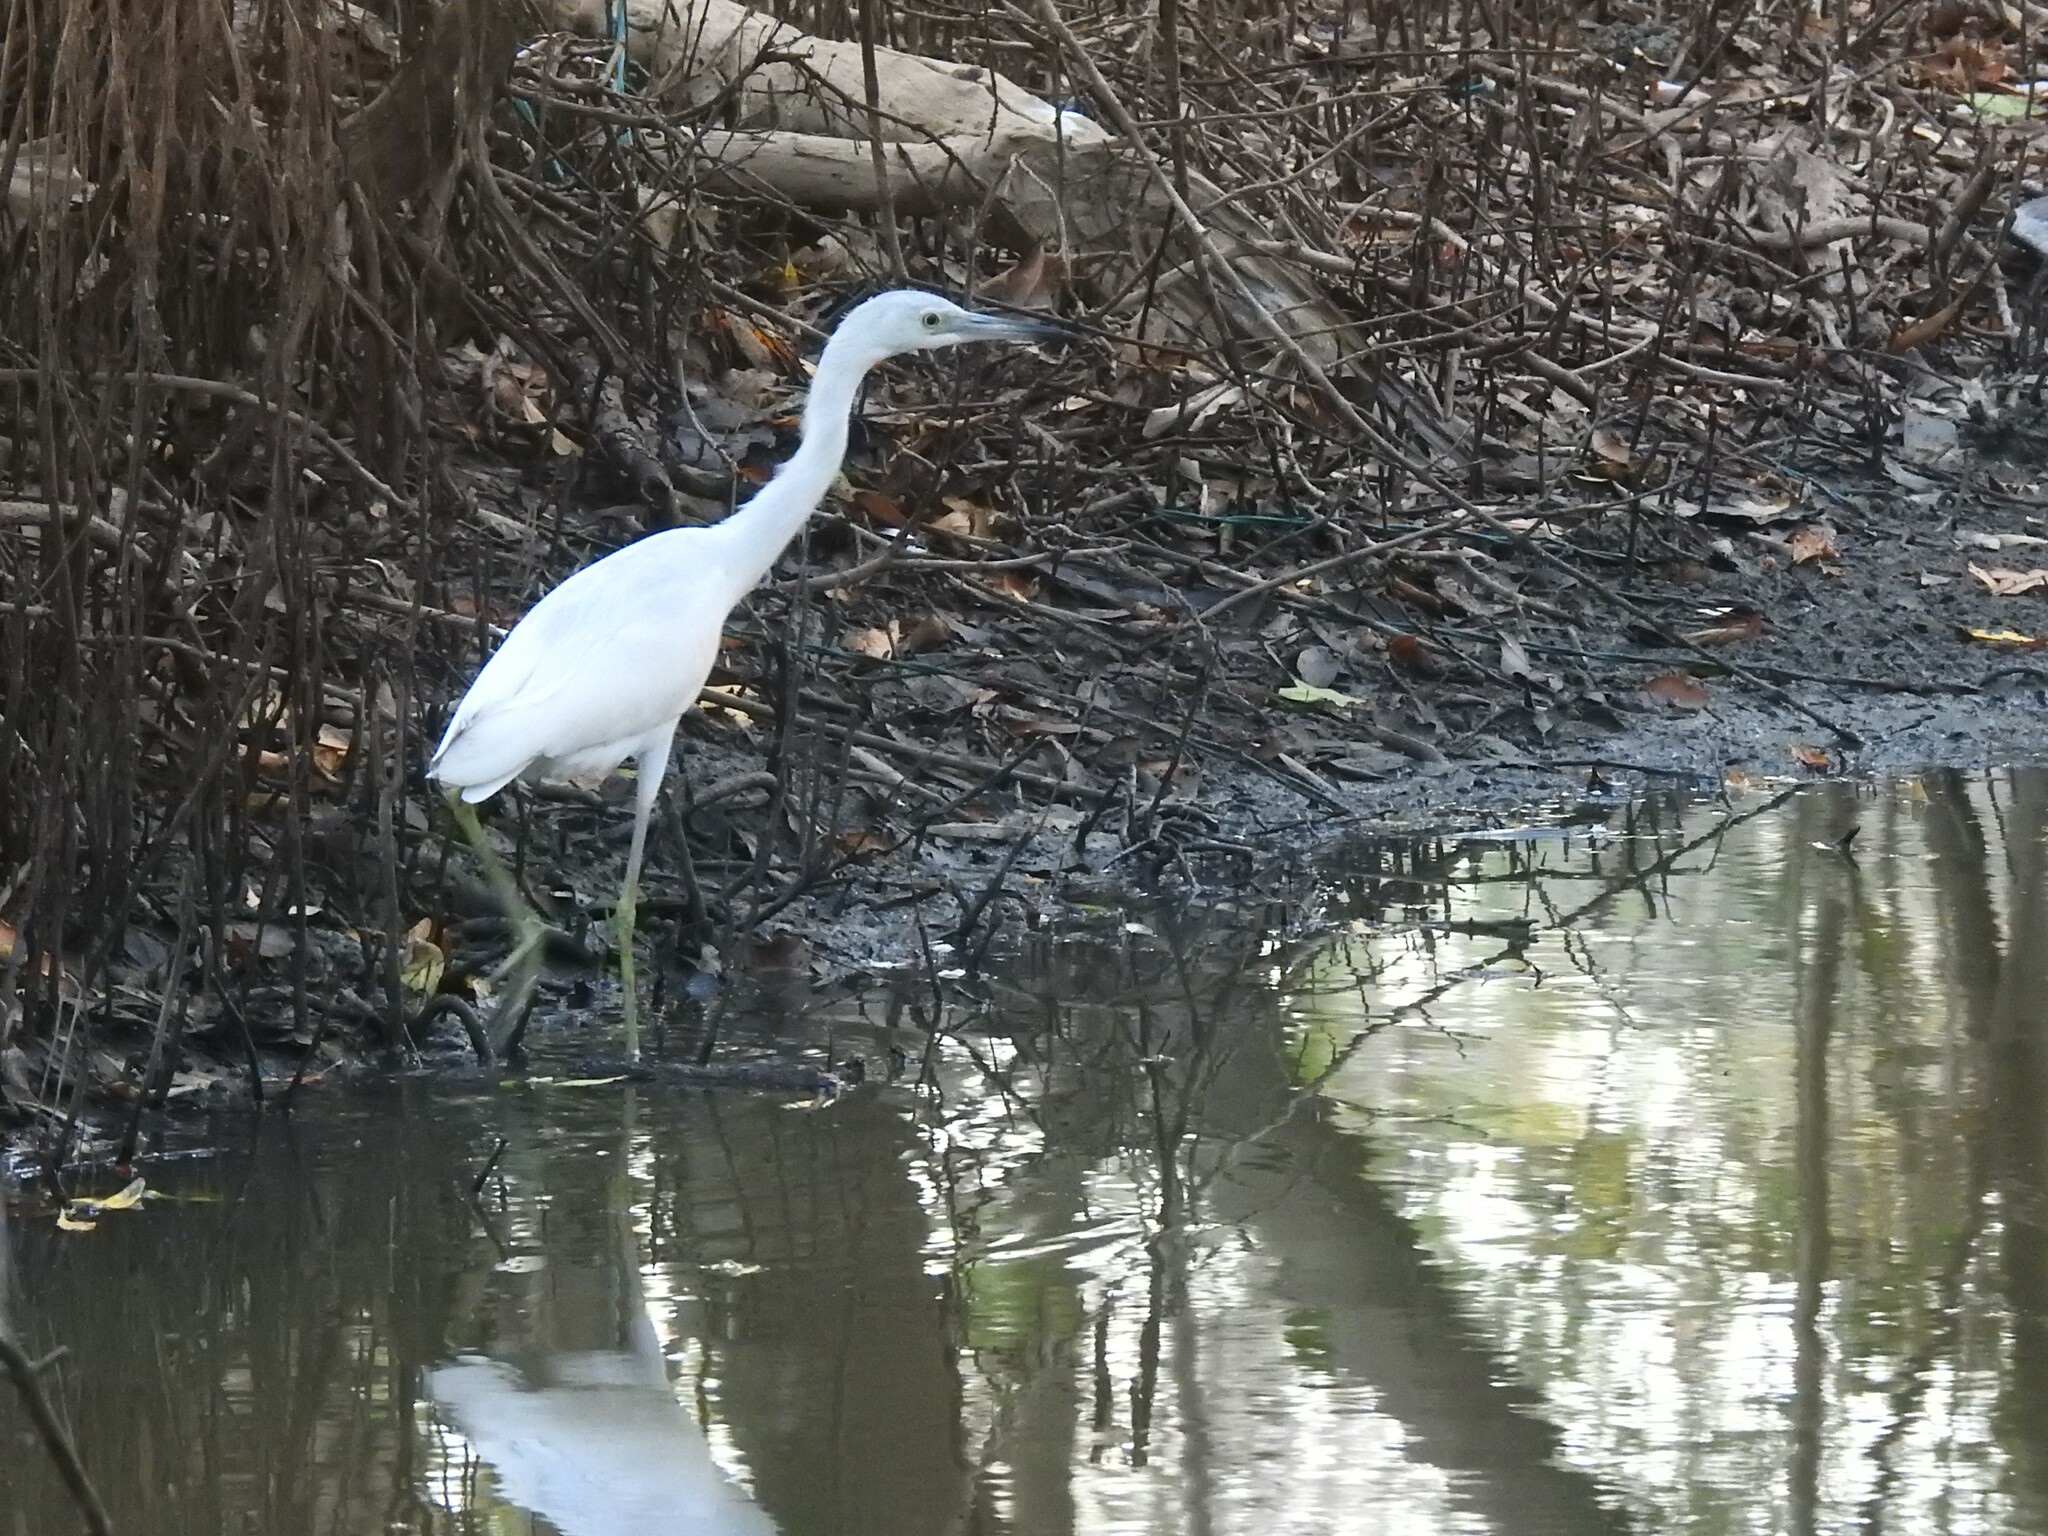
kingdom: Animalia
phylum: Chordata
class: Aves
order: Pelecaniformes
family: Ardeidae
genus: Egretta
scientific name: Egretta caerulea
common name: Little blue heron
